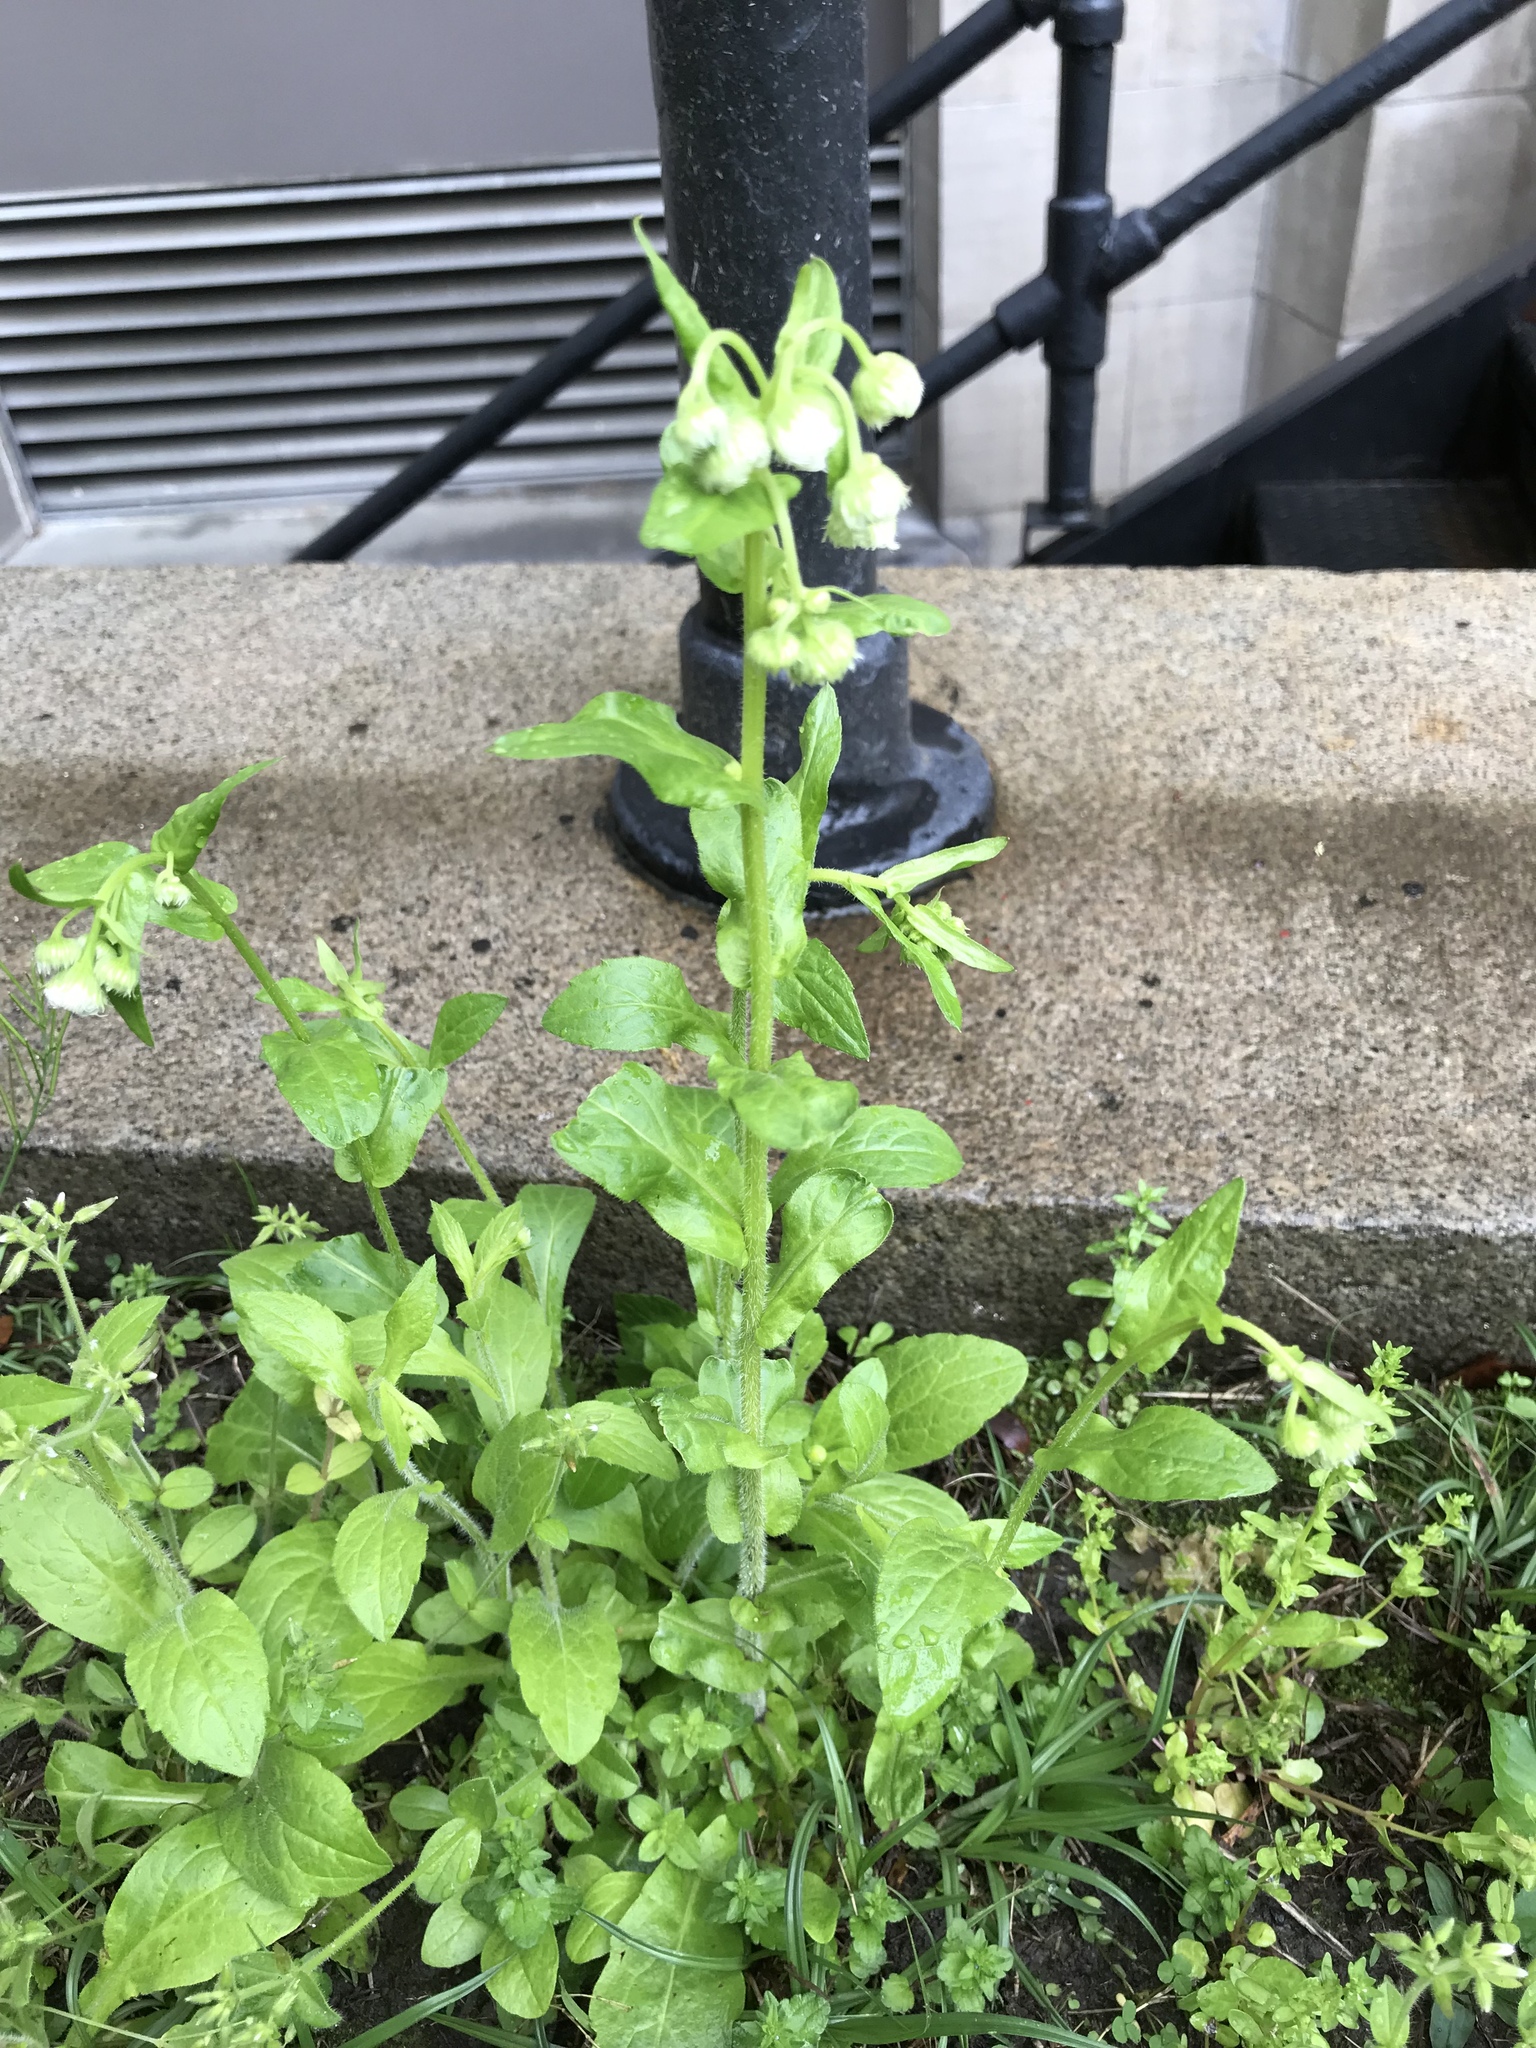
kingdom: Plantae
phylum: Tracheophyta
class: Magnoliopsida
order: Asterales
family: Asteraceae
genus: Erigeron
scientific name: Erigeron philadelphicus
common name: Robin's-plantain
